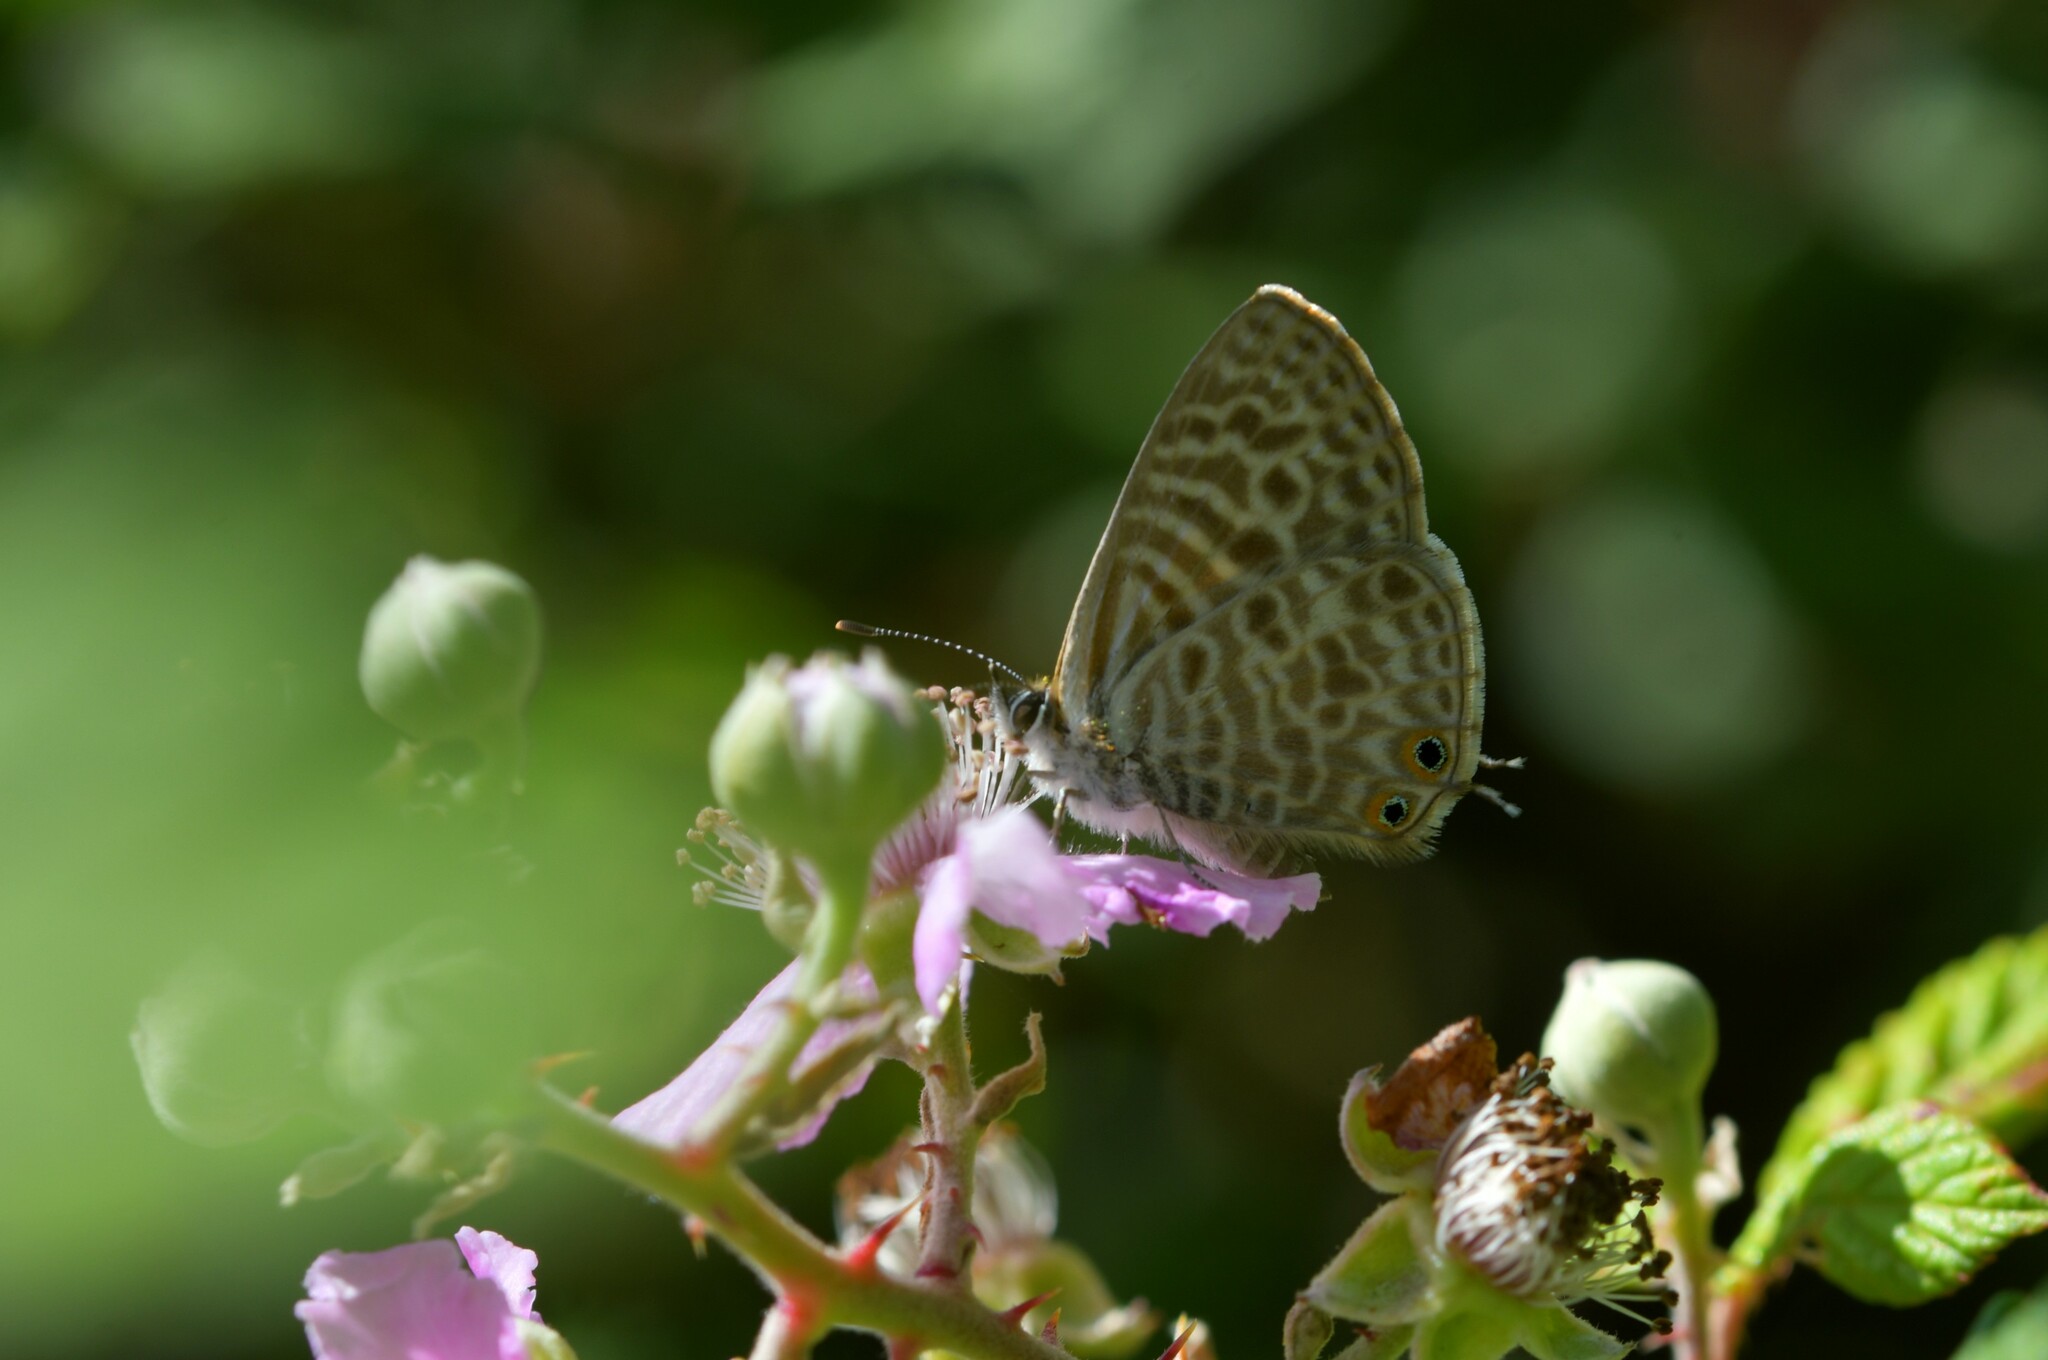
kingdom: Animalia
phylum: Arthropoda
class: Insecta
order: Lepidoptera
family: Lycaenidae
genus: Leptotes
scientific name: Leptotes pirithous
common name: Lang's short-tailed blue
